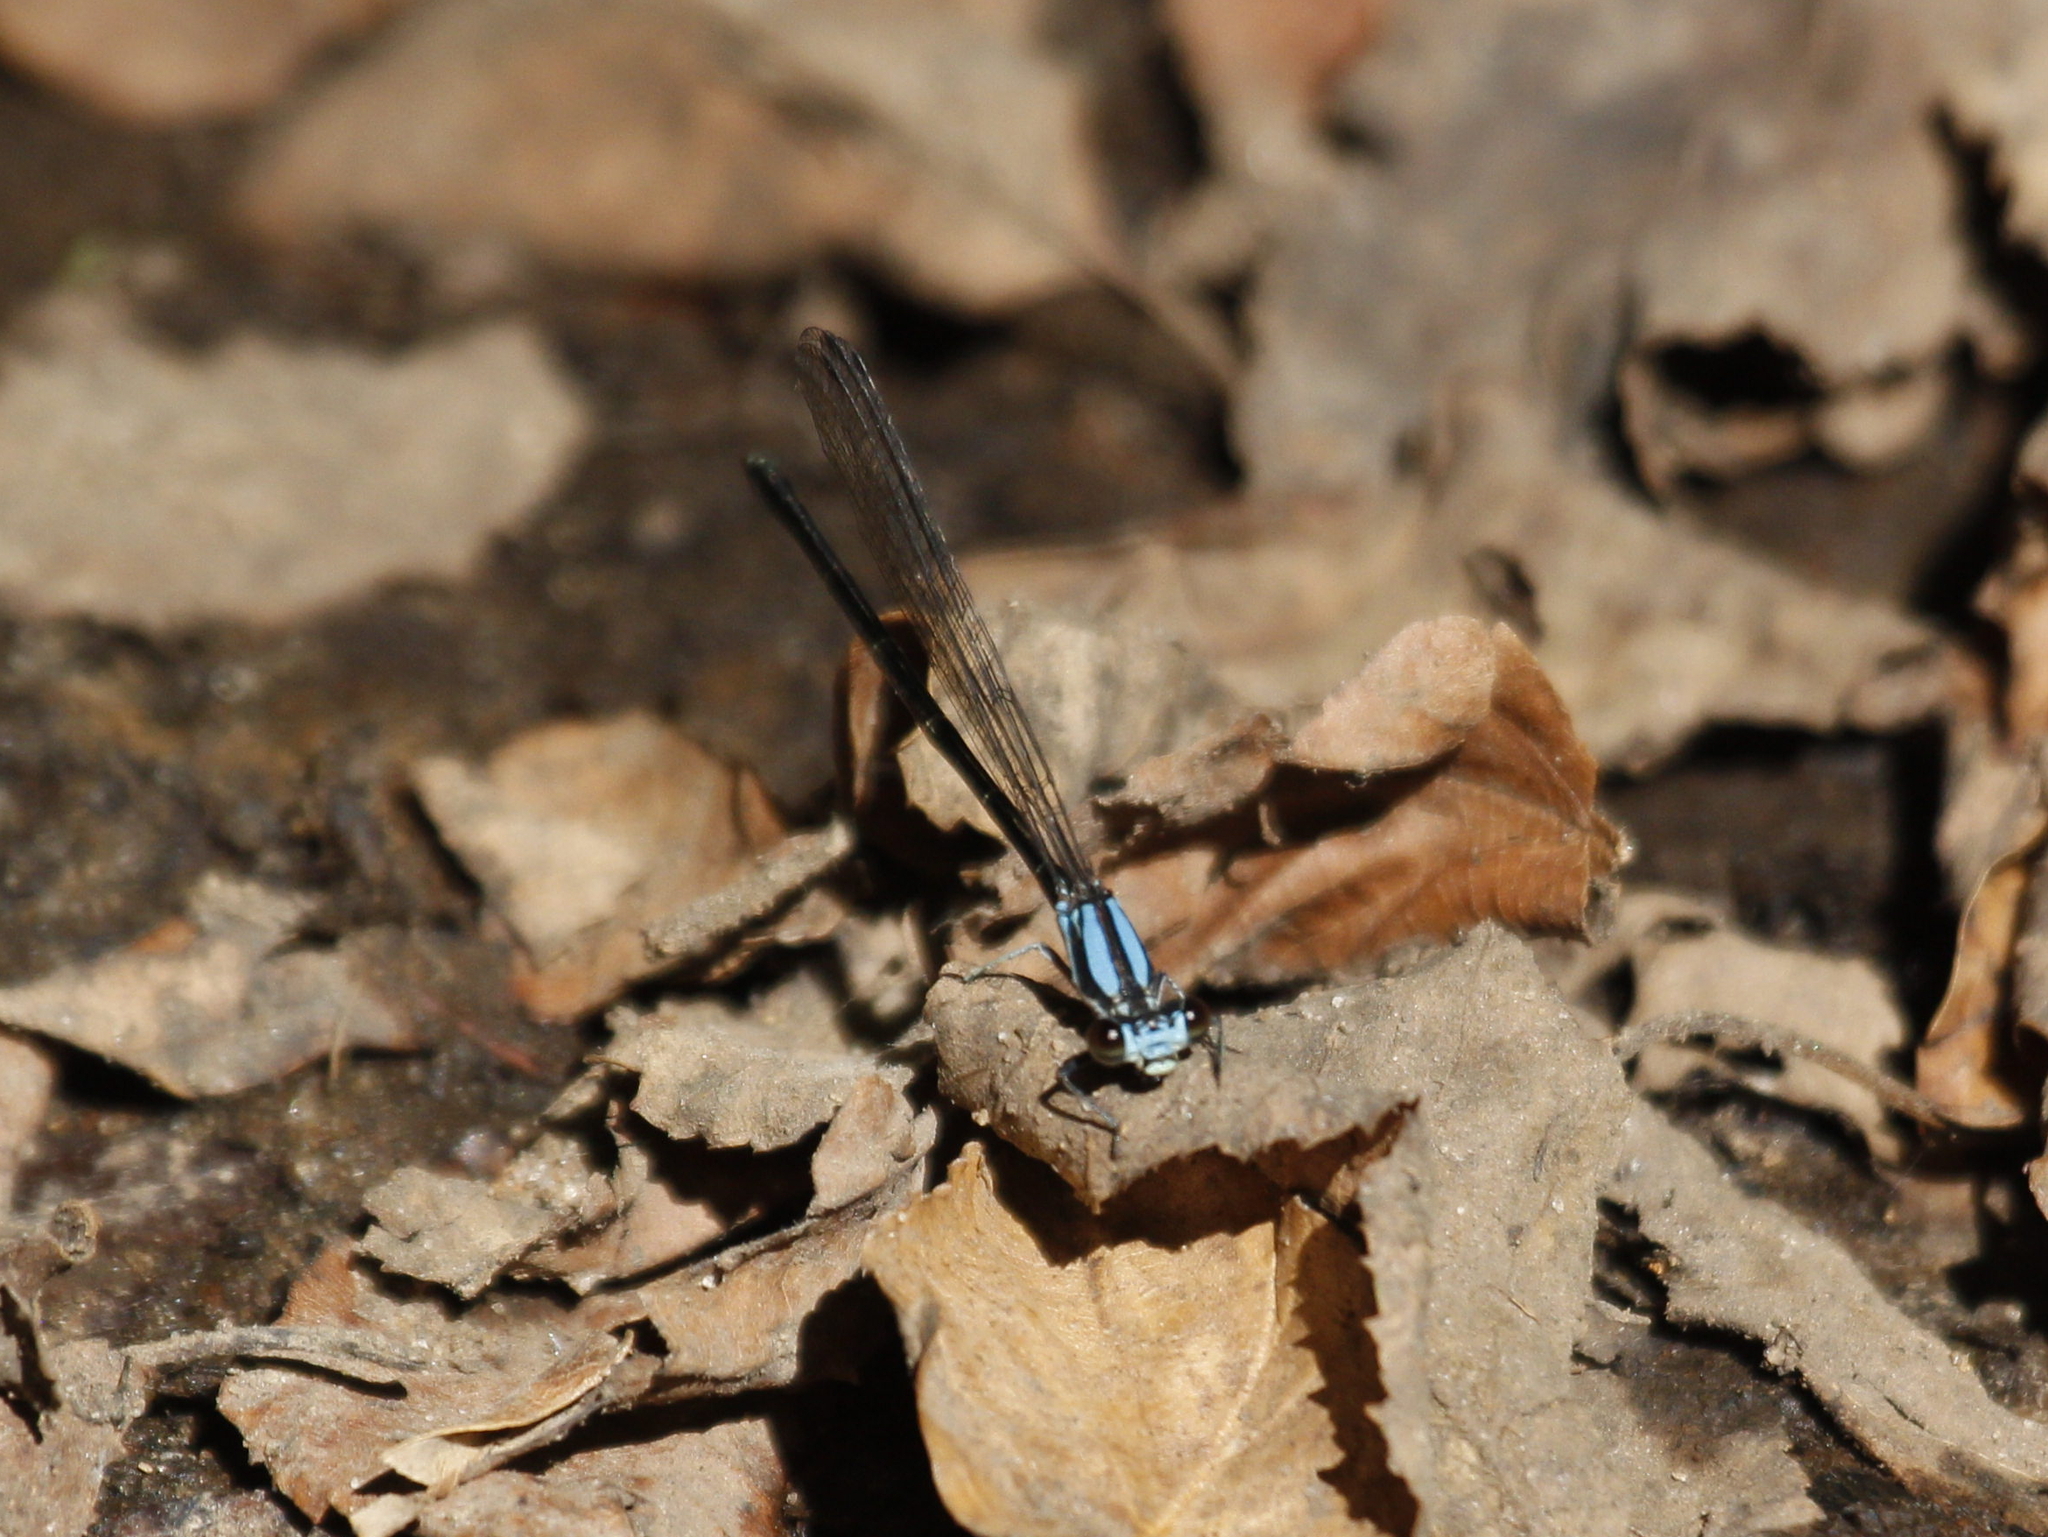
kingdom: Animalia
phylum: Arthropoda
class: Insecta
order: Odonata
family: Coenagrionidae
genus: Argia
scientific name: Argia tibialis
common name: Blue-tipped dancer
